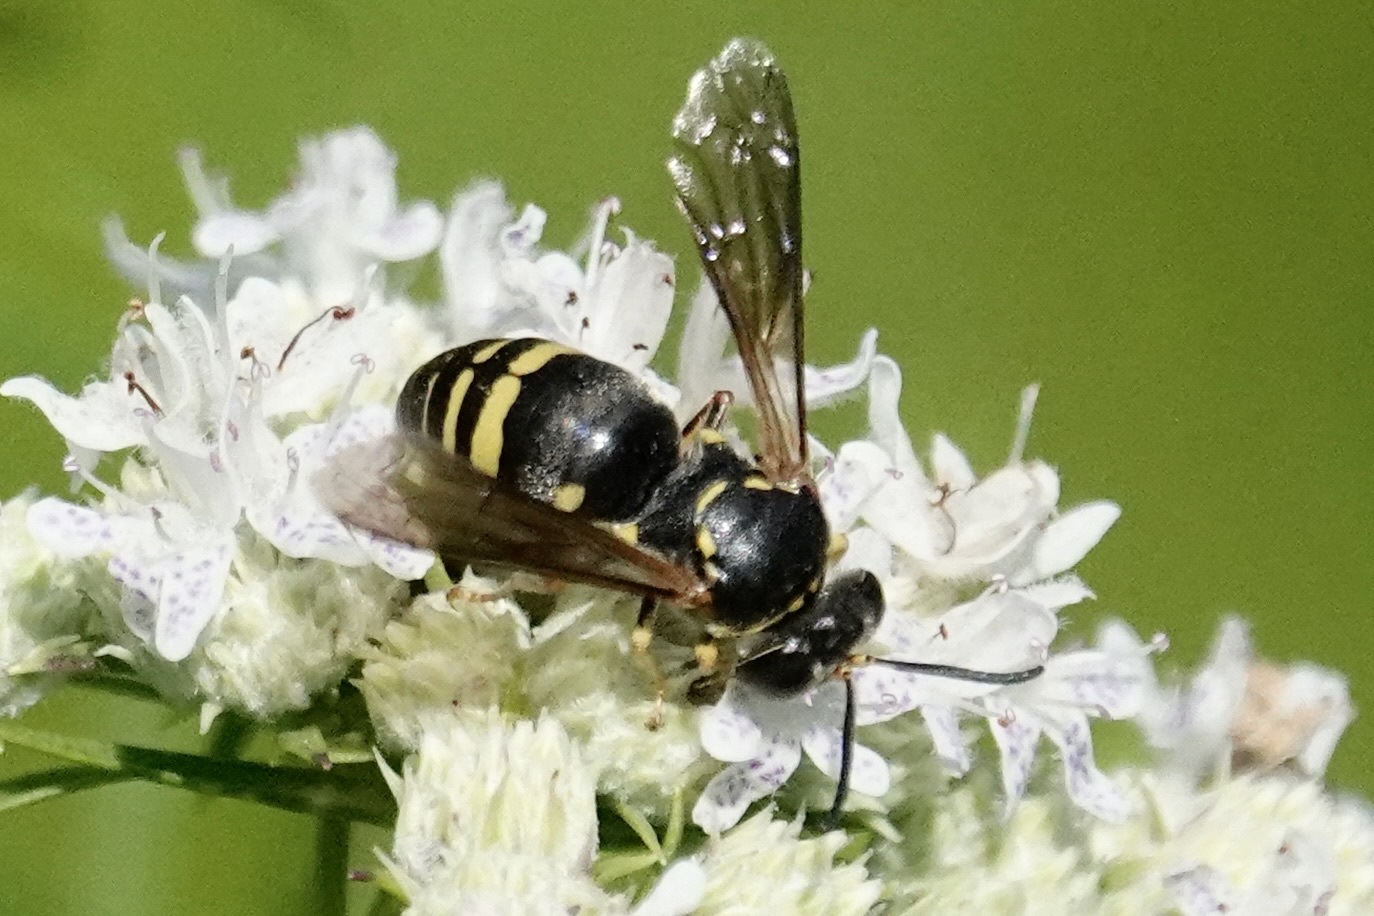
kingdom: Animalia
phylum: Arthropoda
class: Insecta
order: Hymenoptera
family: Crabronidae
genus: Bicyrtes
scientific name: Bicyrtes fodiens
